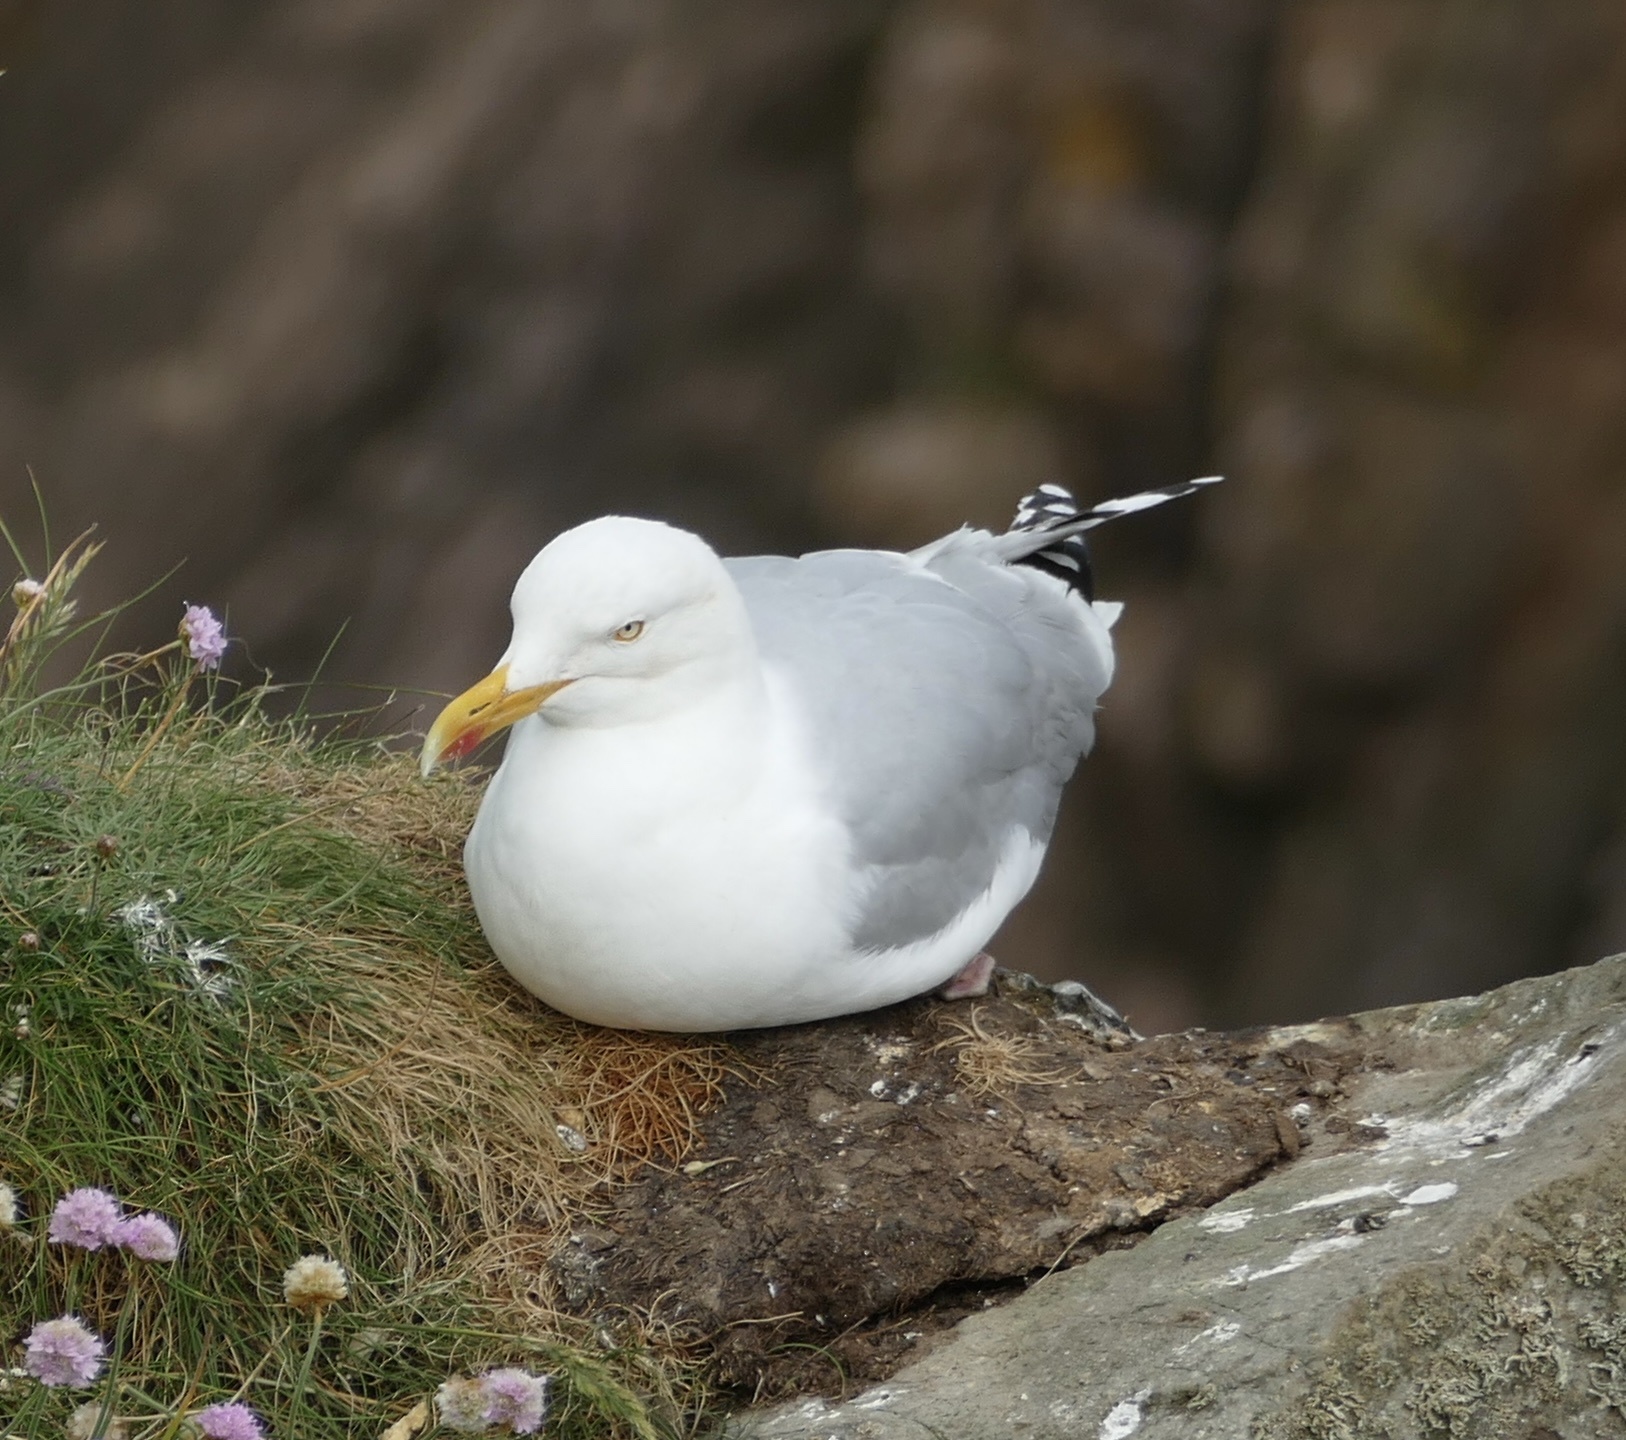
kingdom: Animalia
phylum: Chordata
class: Aves
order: Charadriiformes
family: Laridae
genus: Larus
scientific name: Larus argentatus
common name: Herring gull
